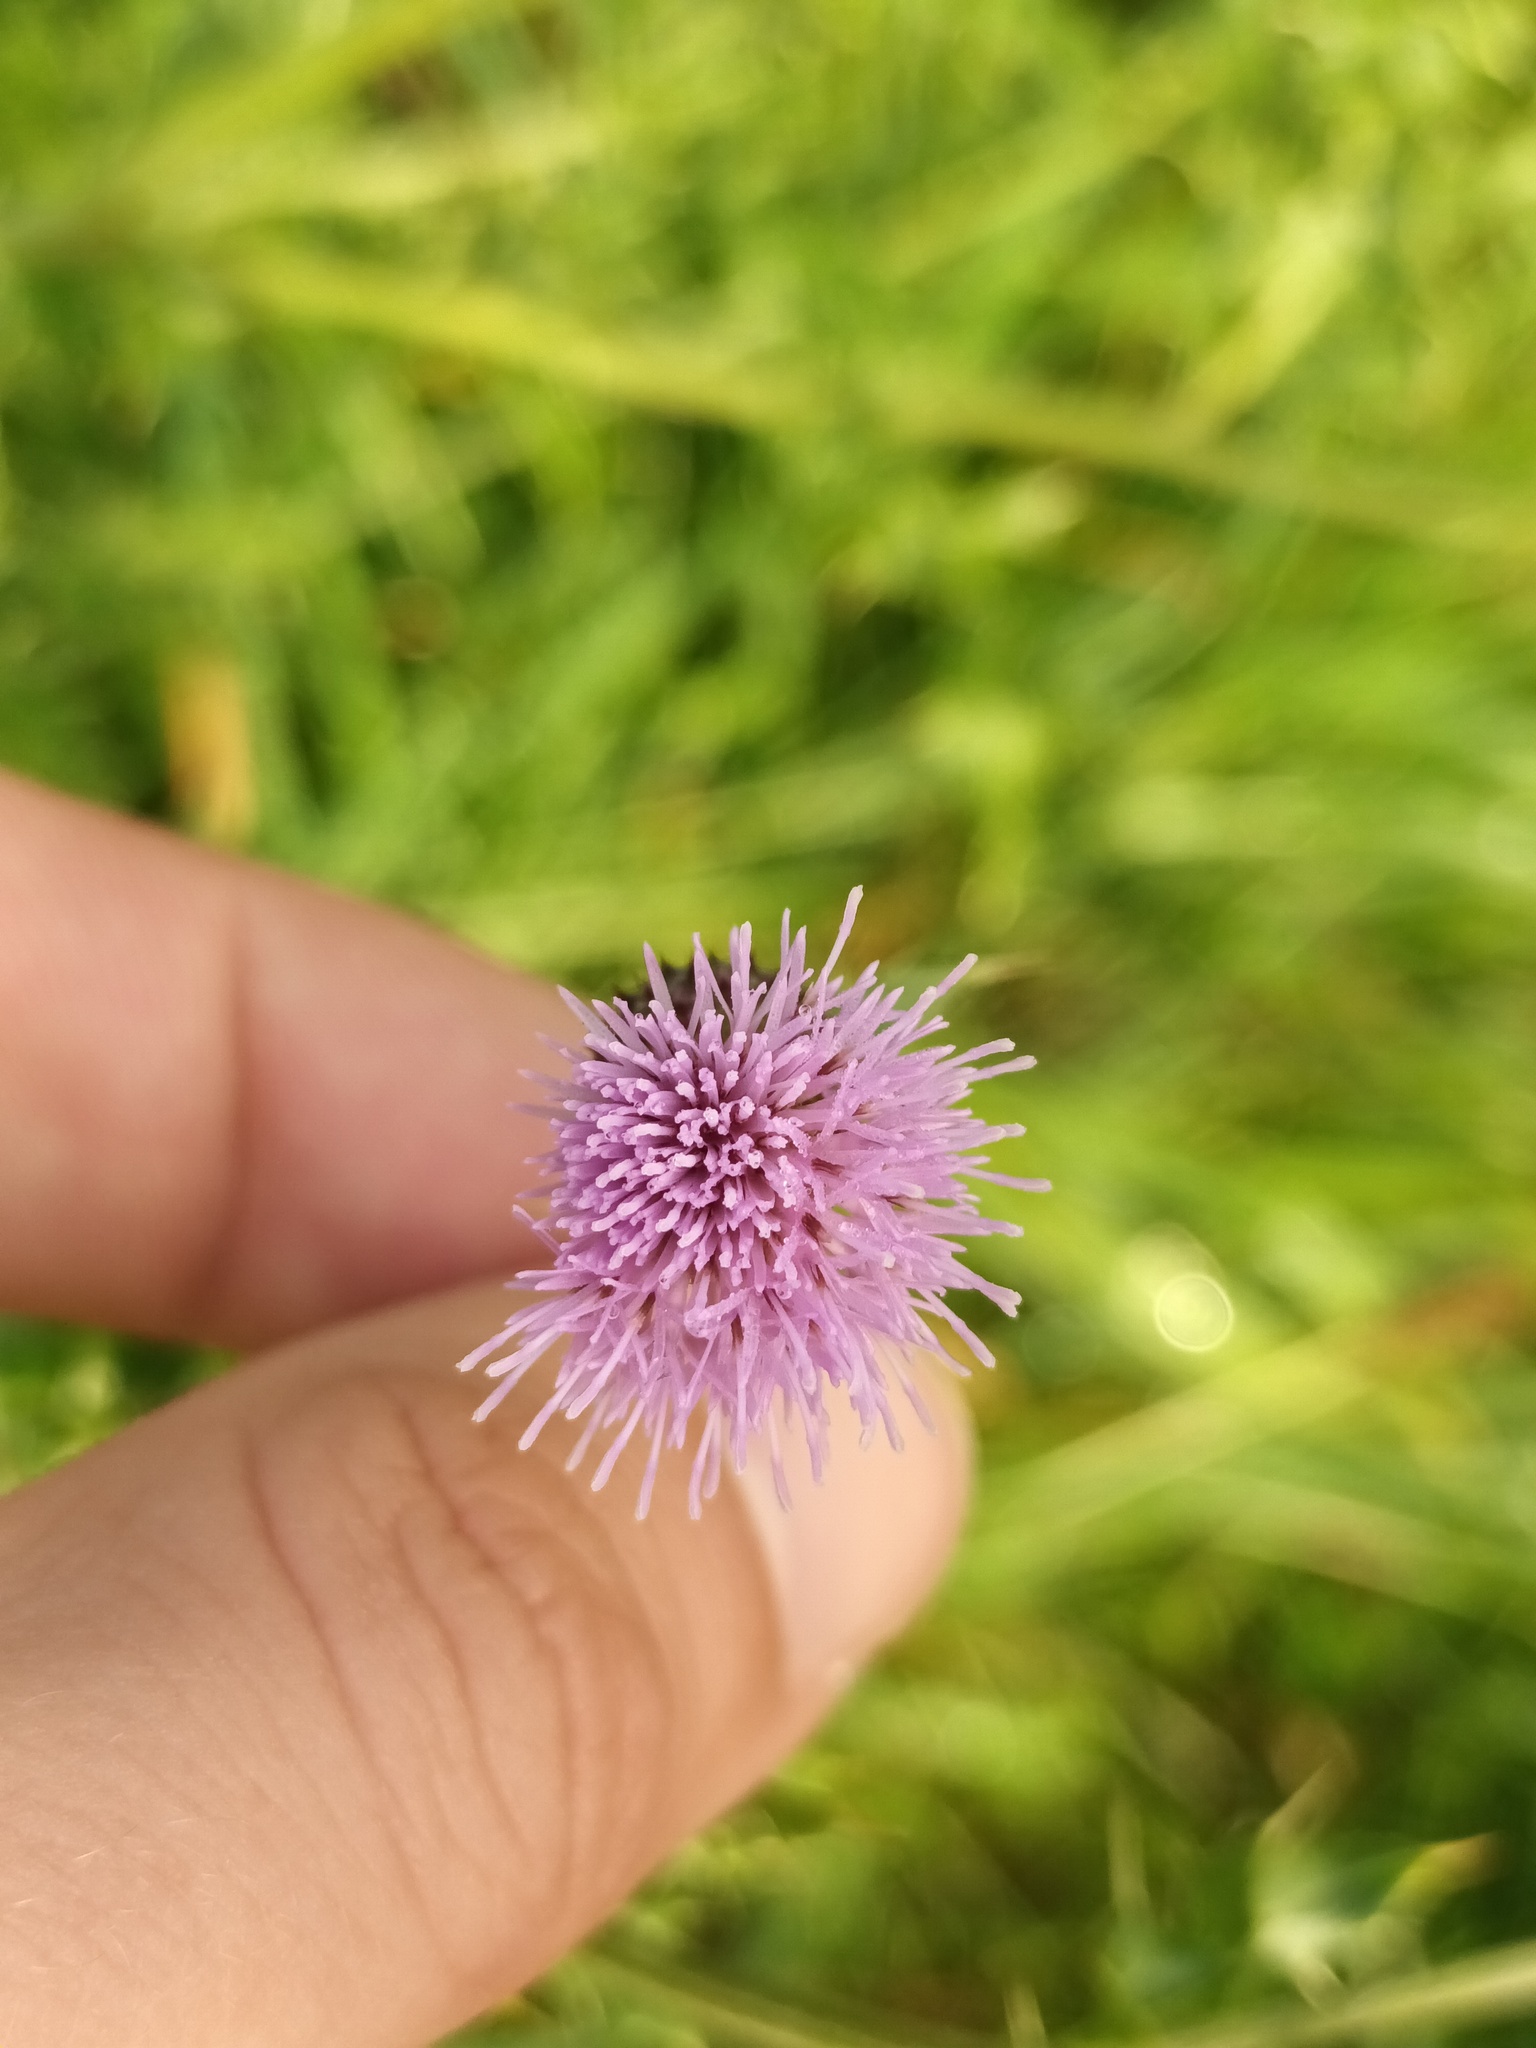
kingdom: Plantae
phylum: Tracheophyta
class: Magnoliopsida
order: Asterales
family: Asteraceae
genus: Cirsium
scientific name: Cirsium arvense
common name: Creeping thistle
